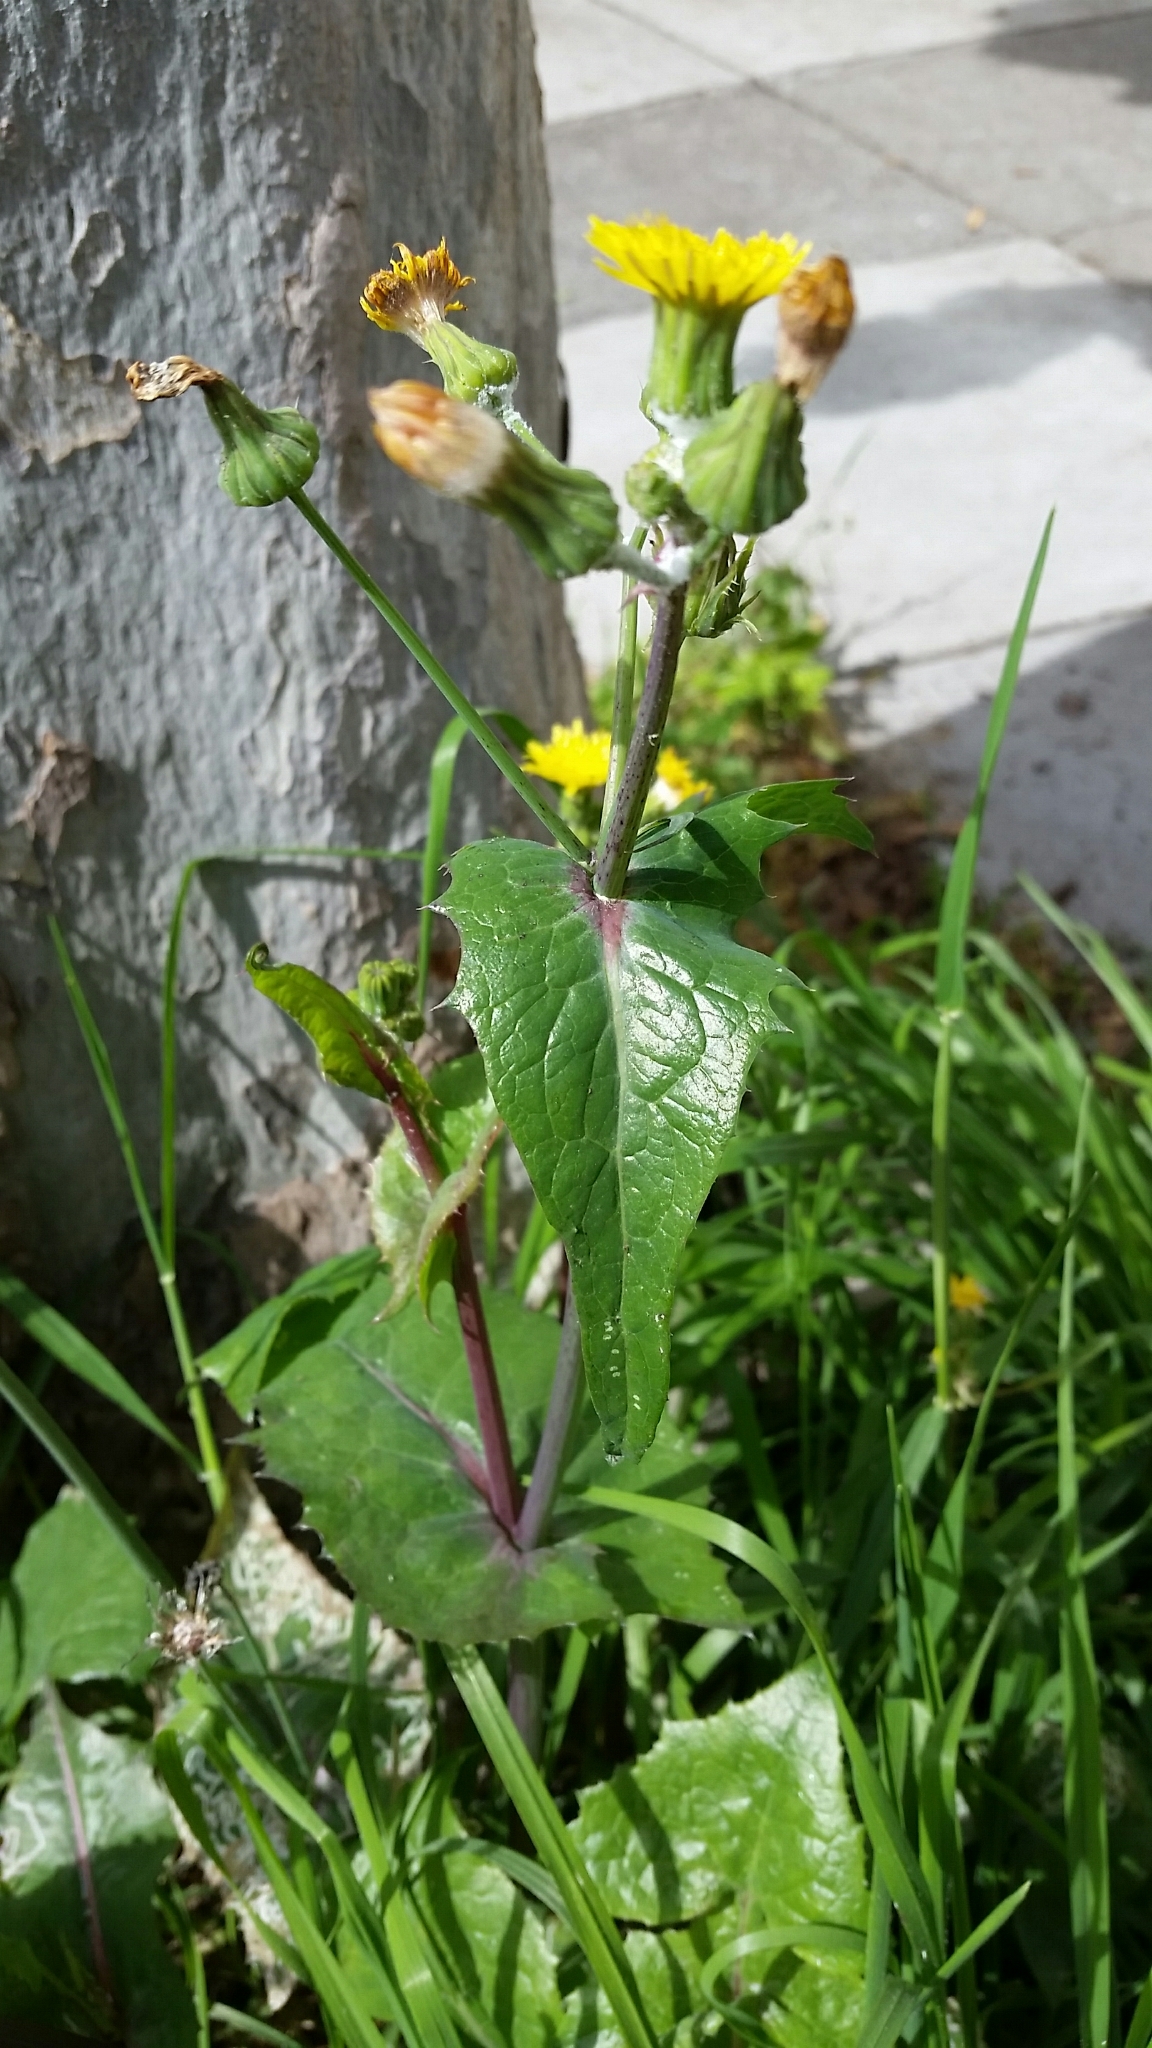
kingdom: Plantae
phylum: Tracheophyta
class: Magnoliopsida
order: Asterales
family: Asteraceae
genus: Sonchus
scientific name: Sonchus oleraceus
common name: Common sowthistle
